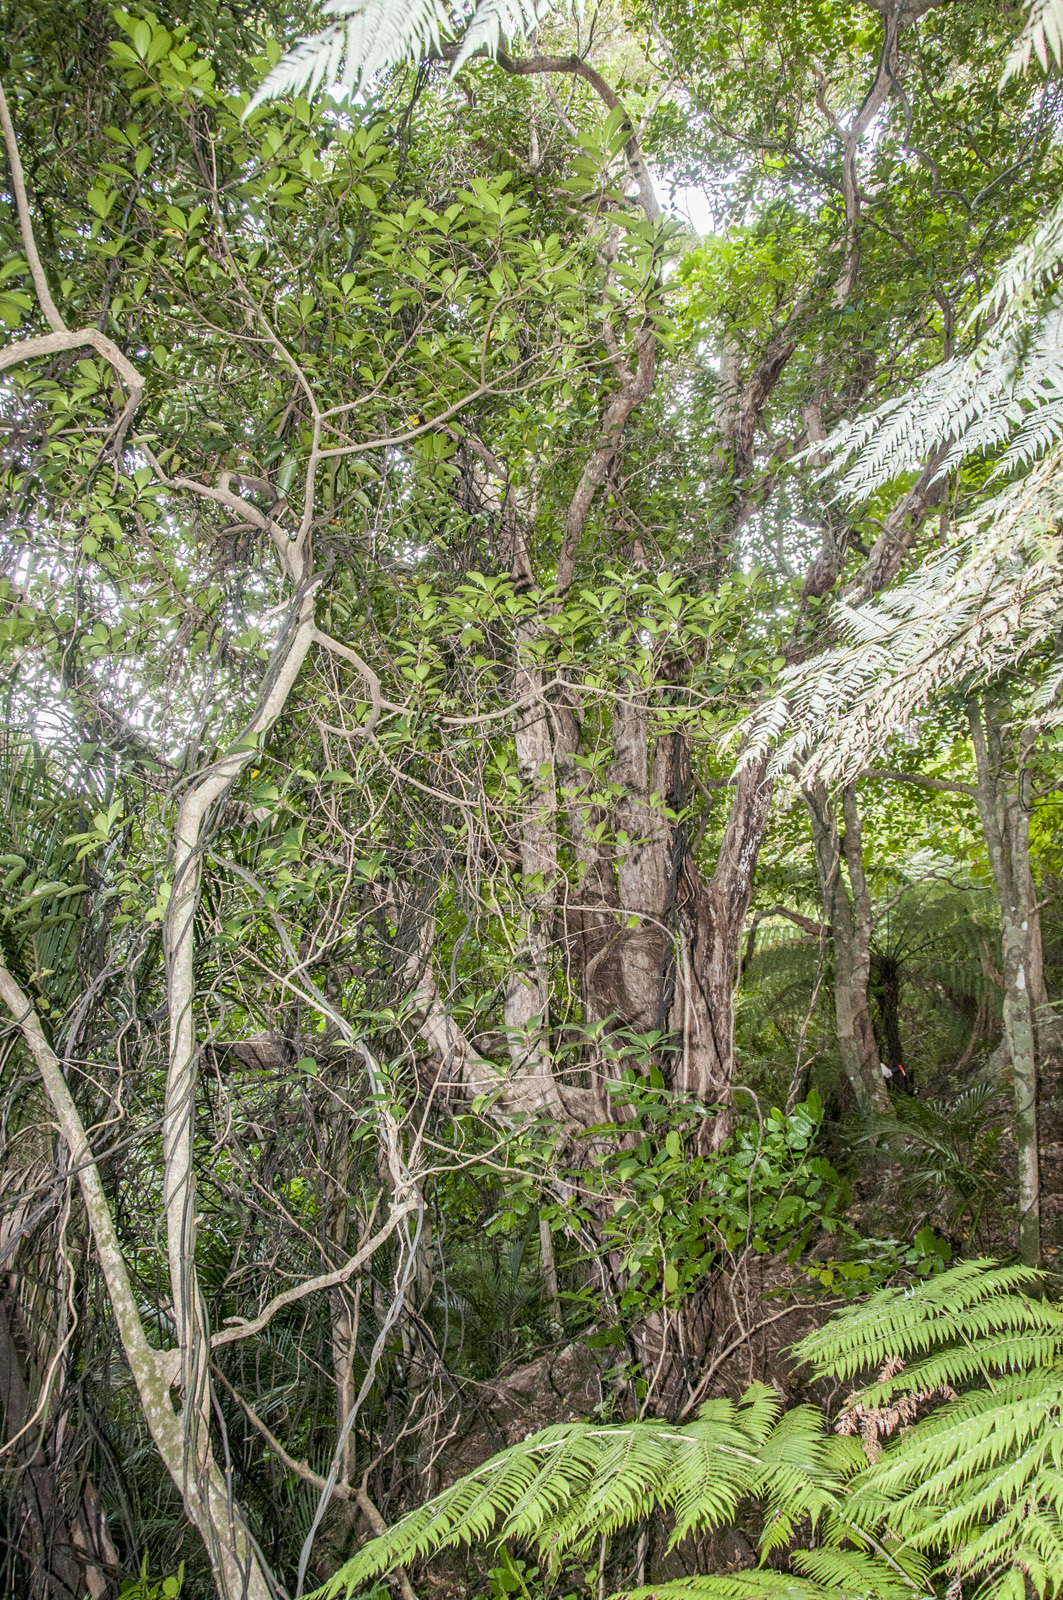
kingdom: Plantae
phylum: Tracheophyta
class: Magnoliopsida
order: Myrtales
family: Myrtaceae
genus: Metrosideros
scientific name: Metrosideros bartlettii
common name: Bartlett's rata
